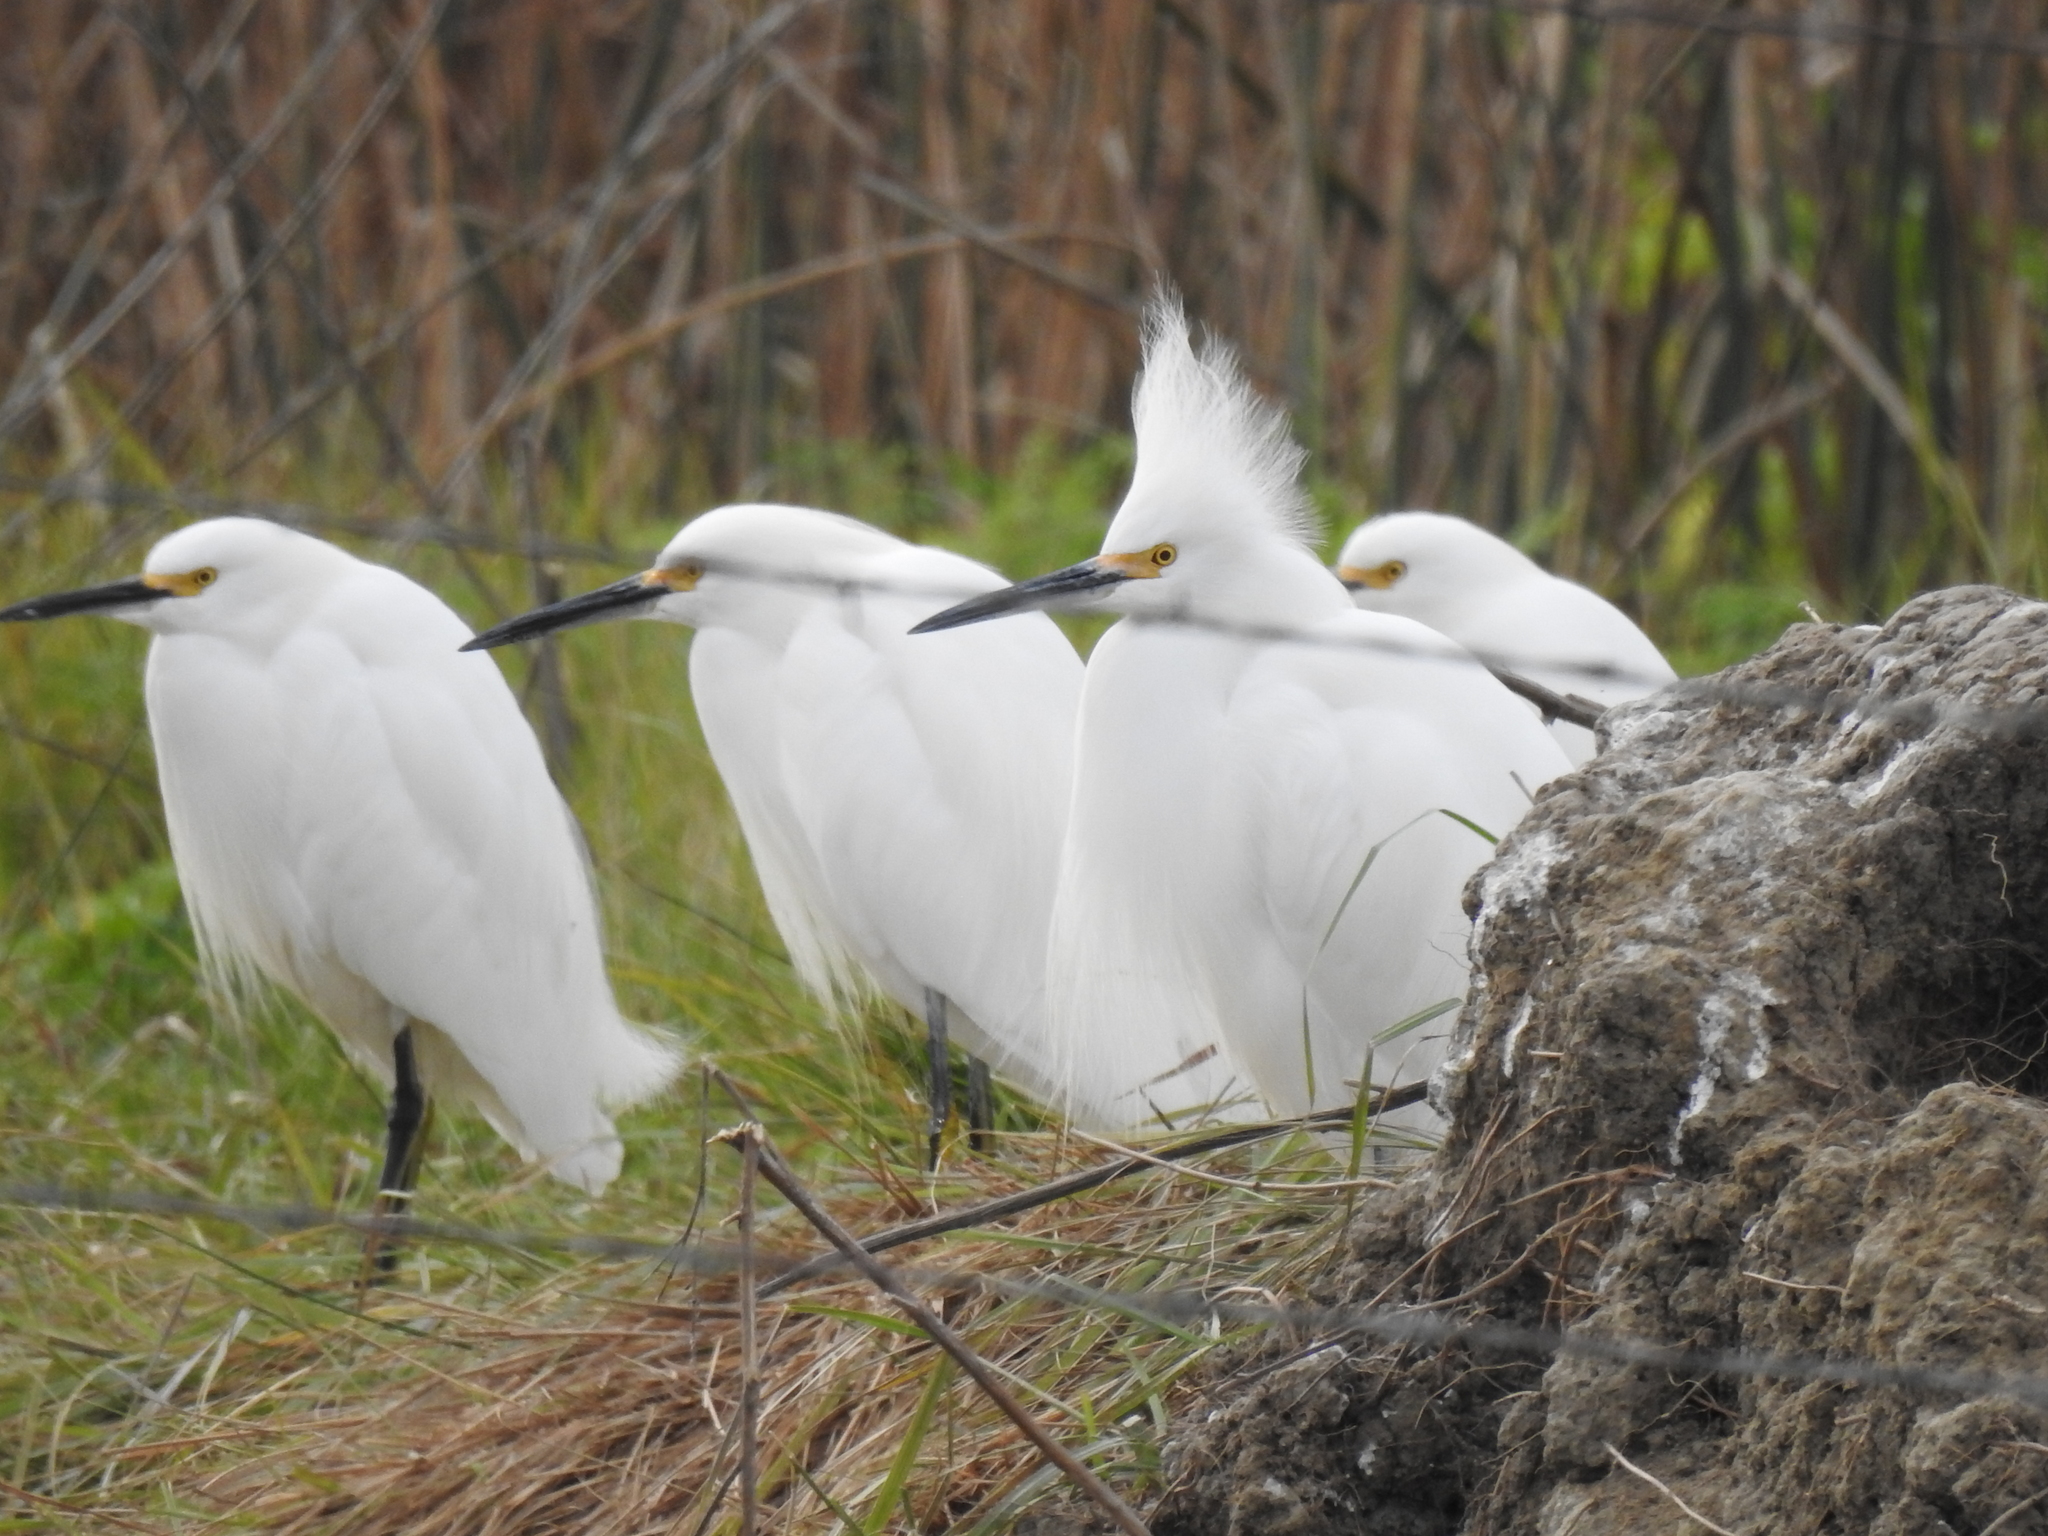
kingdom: Animalia
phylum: Chordata
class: Aves
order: Pelecaniformes
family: Ardeidae
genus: Egretta
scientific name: Egretta thula
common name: Snowy egret
